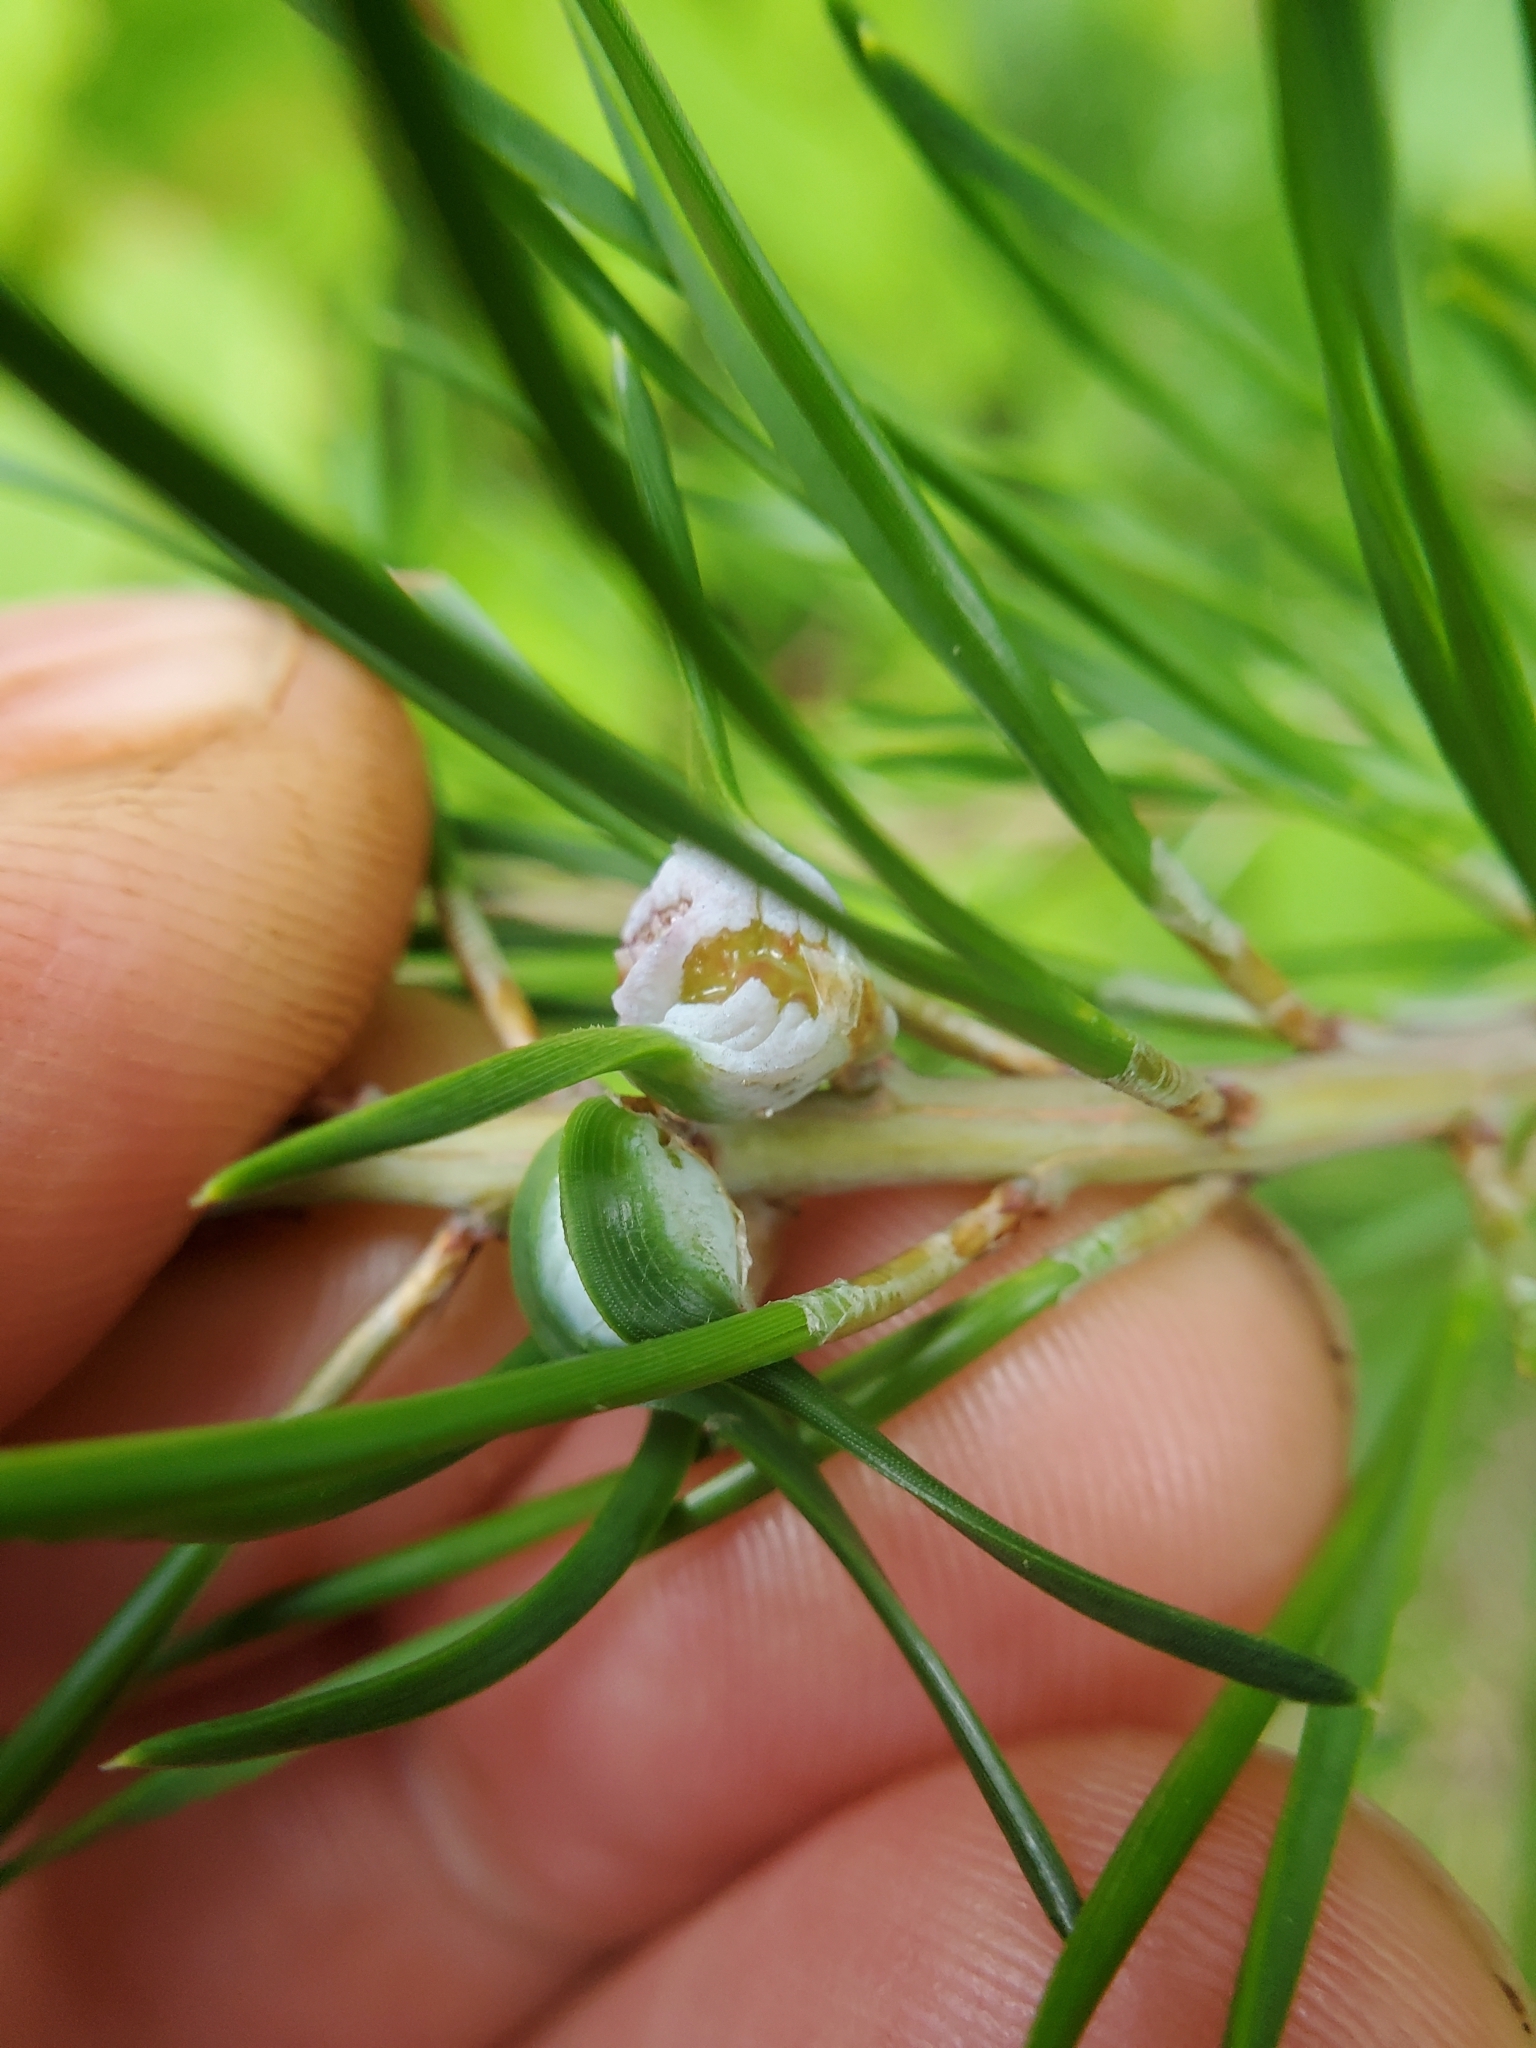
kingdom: Animalia
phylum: Arthropoda
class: Insecta
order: Diptera
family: Cecidomyiidae
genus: Thecodiplosis
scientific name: Thecodiplosis brachynteroides
